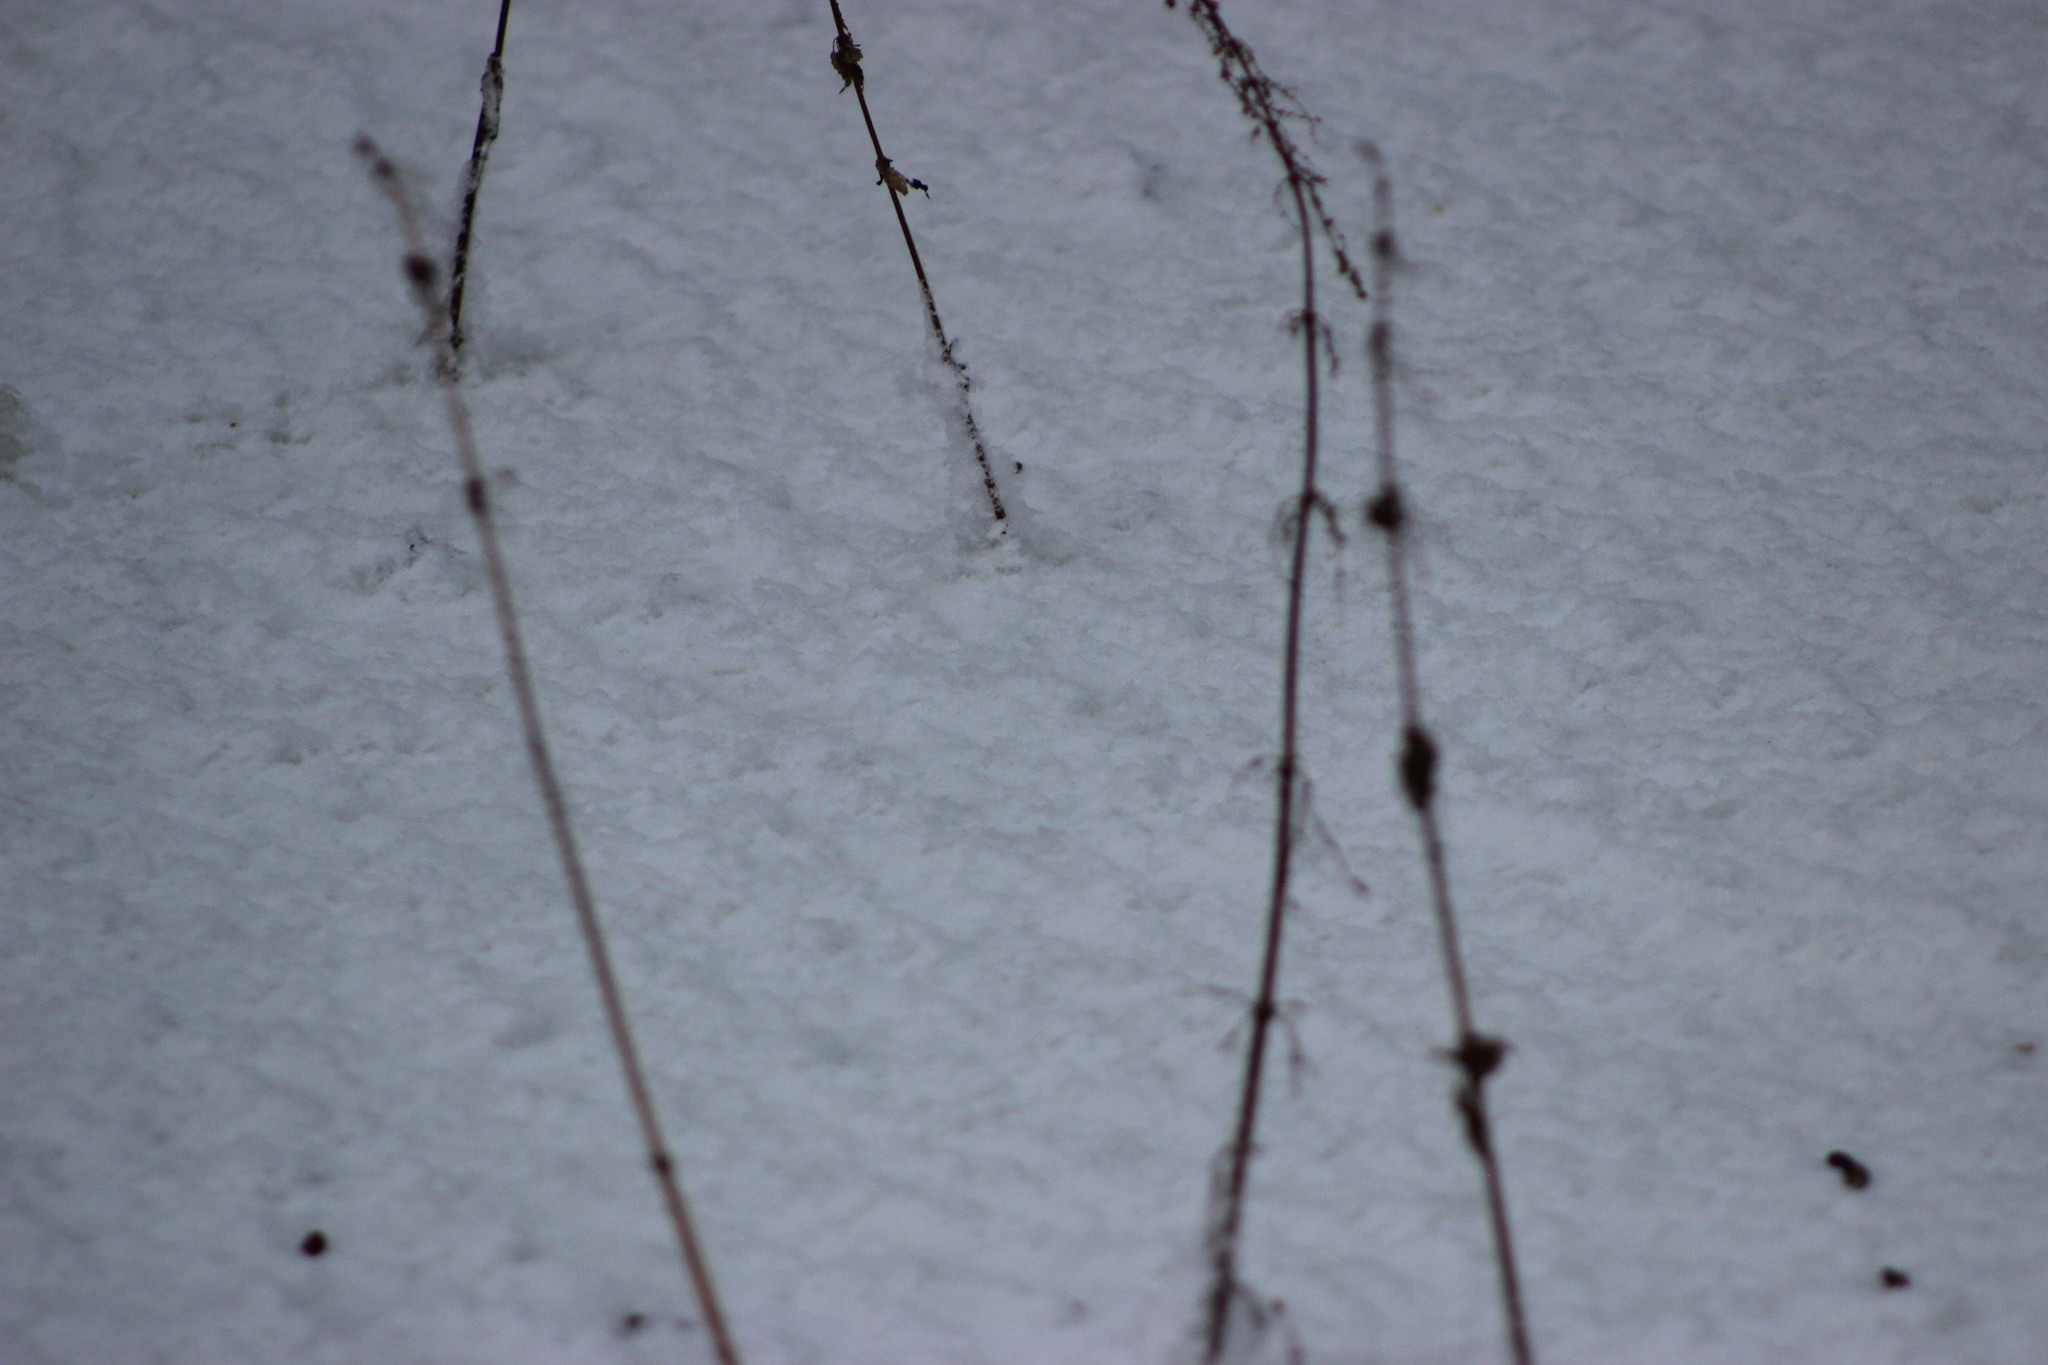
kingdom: Plantae
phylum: Tracheophyta
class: Magnoliopsida
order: Rosales
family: Urticaceae
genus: Urtica
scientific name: Urtica dioica
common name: Common nettle
